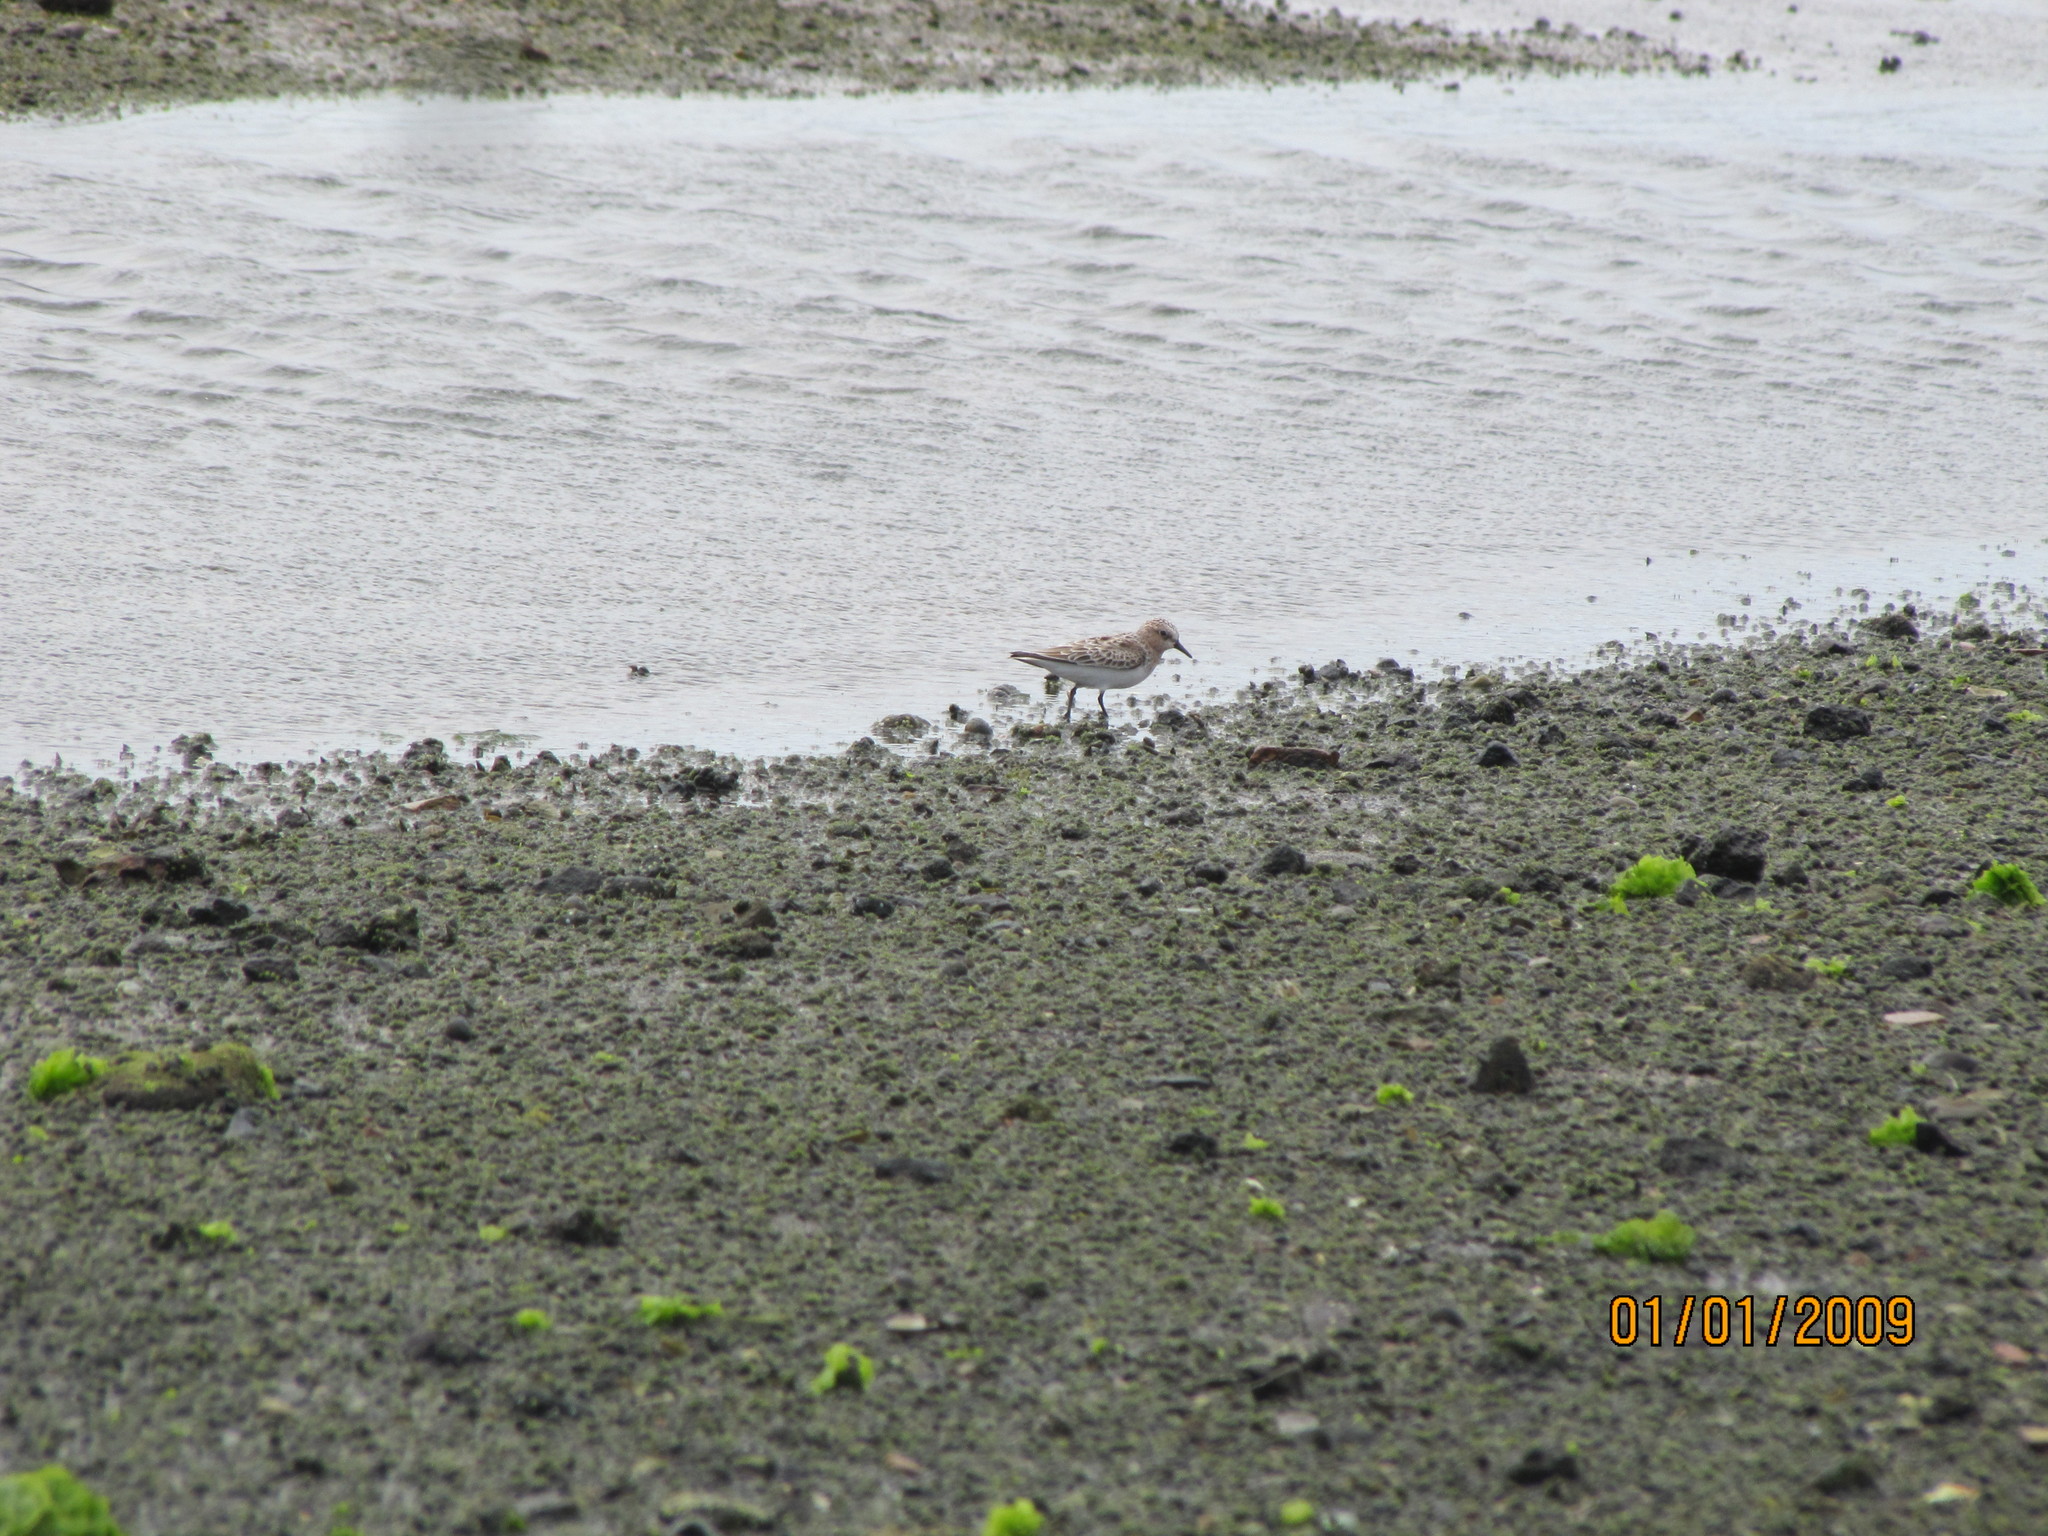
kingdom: Animalia
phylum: Chordata
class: Aves
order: Charadriiformes
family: Scolopacidae
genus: Calidris
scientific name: Calidris ruficollis
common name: Red-necked stint
